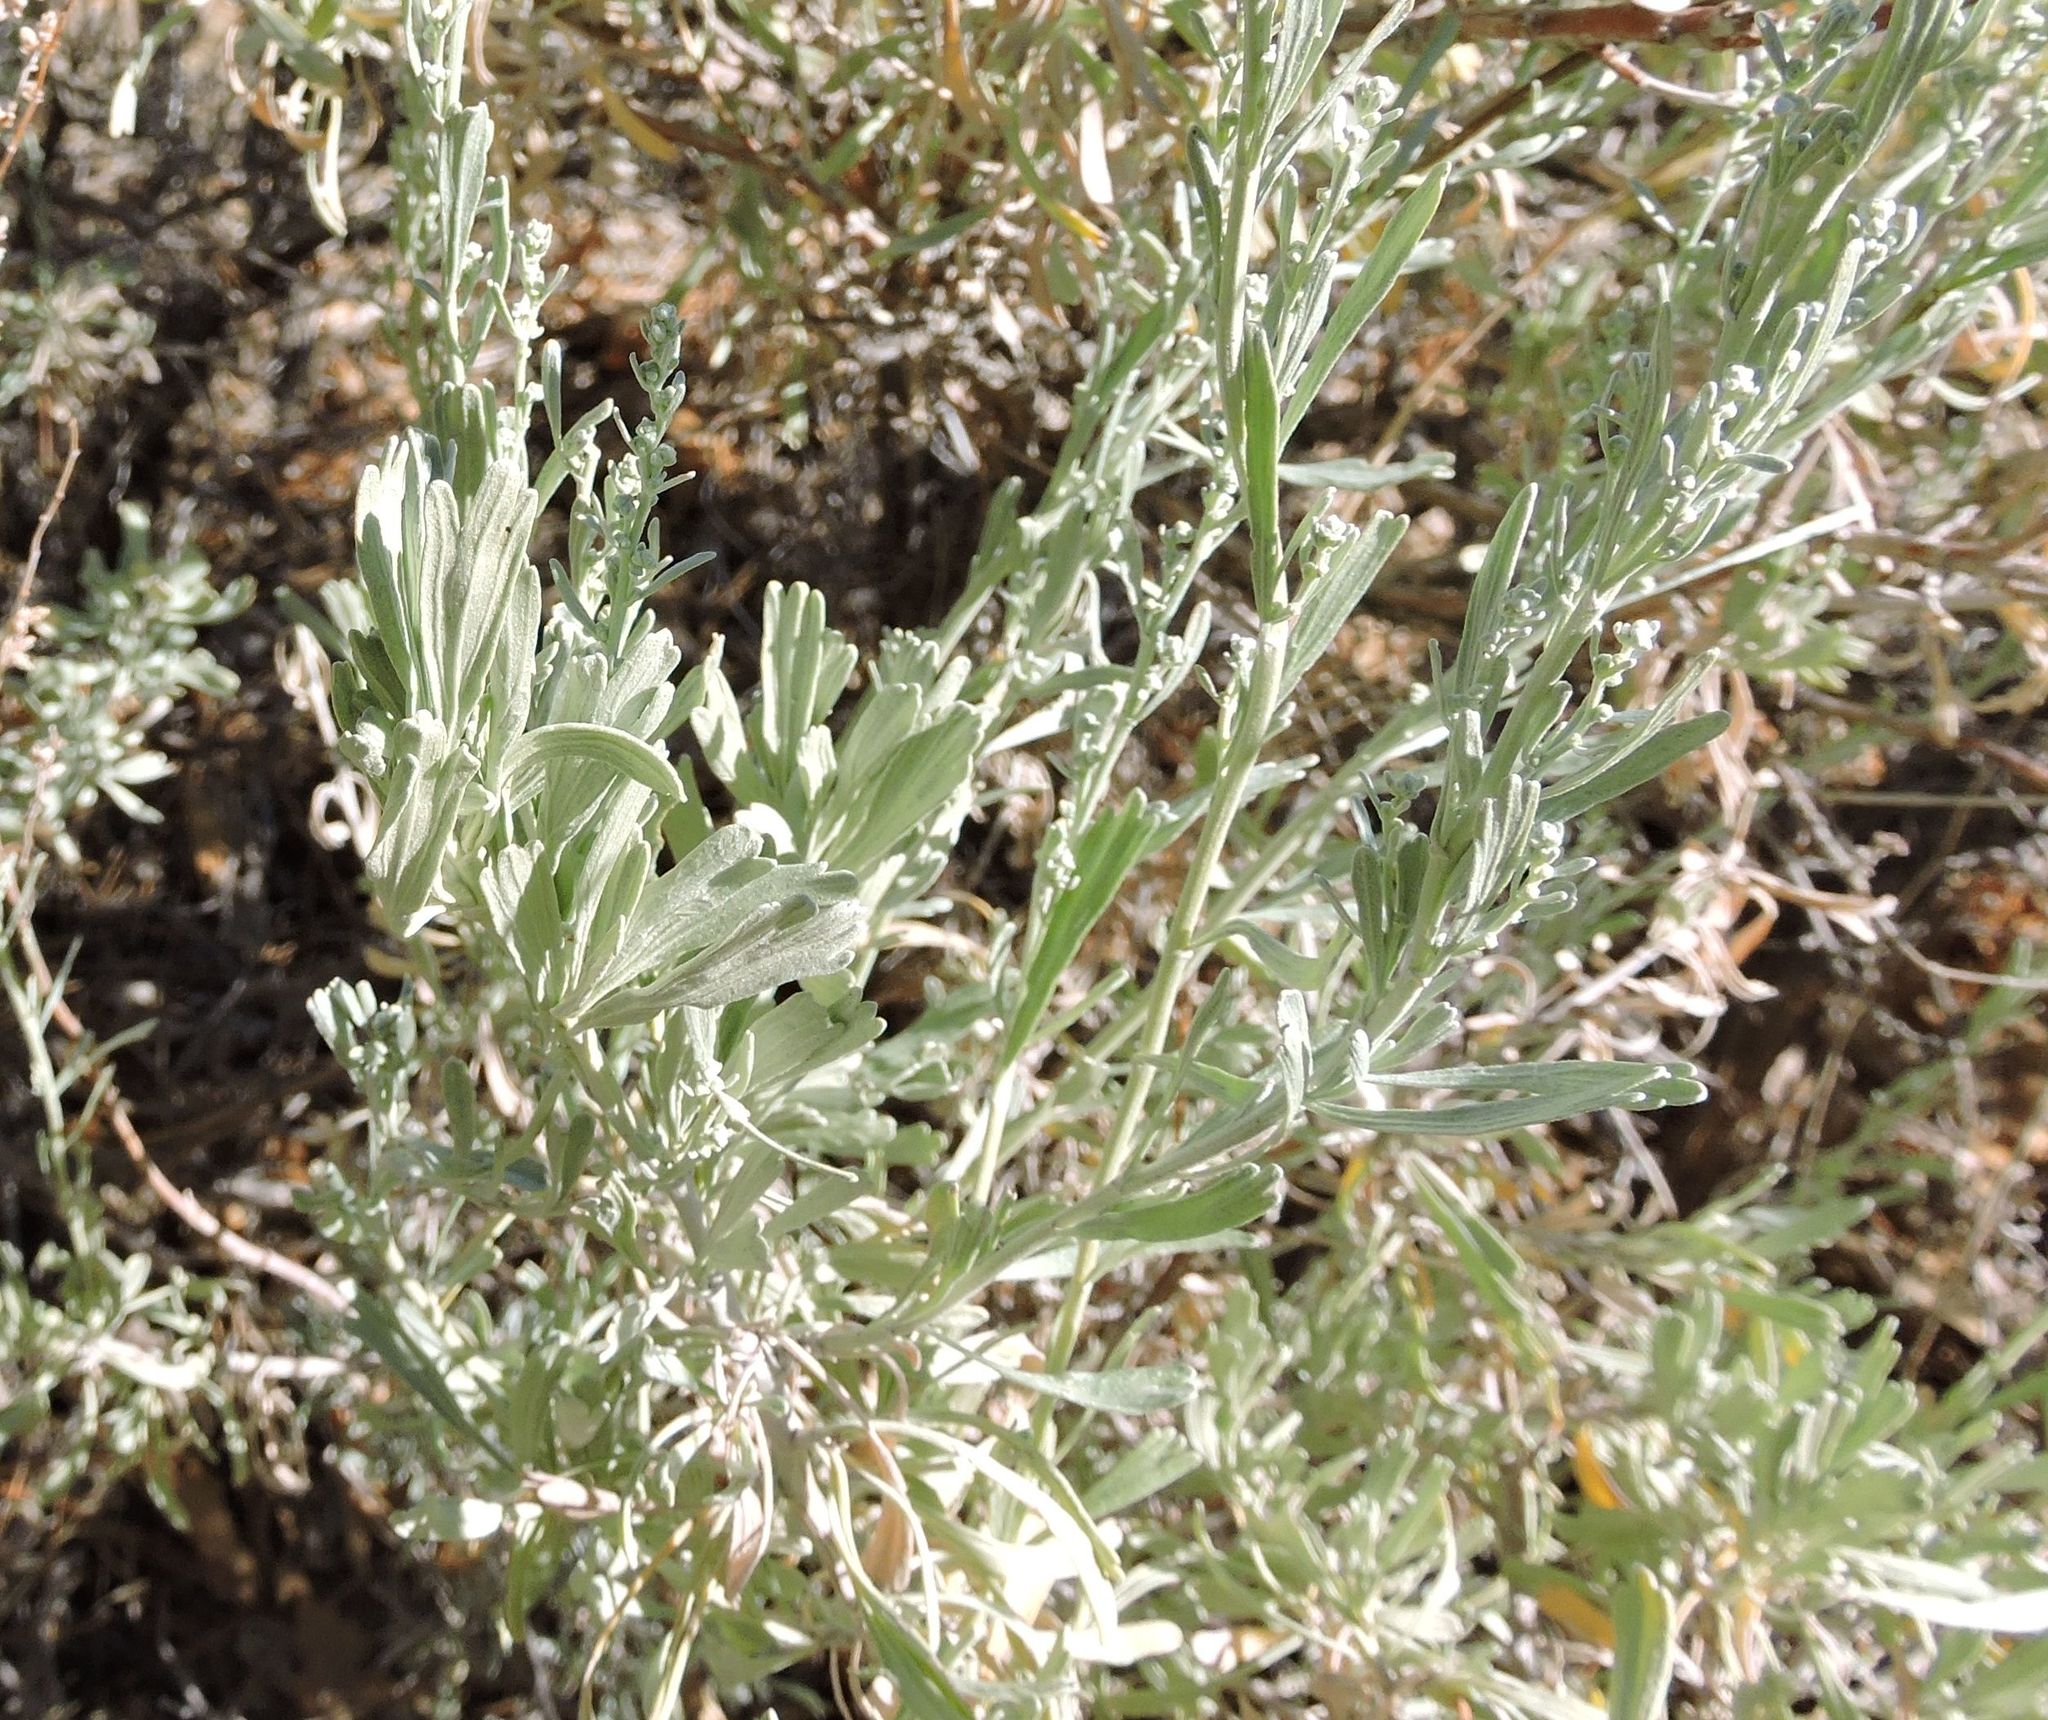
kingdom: Plantae
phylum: Tracheophyta
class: Magnoliopsida
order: Asterales
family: Asteraceae
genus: Artemisia
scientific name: Artemisia tridentata
